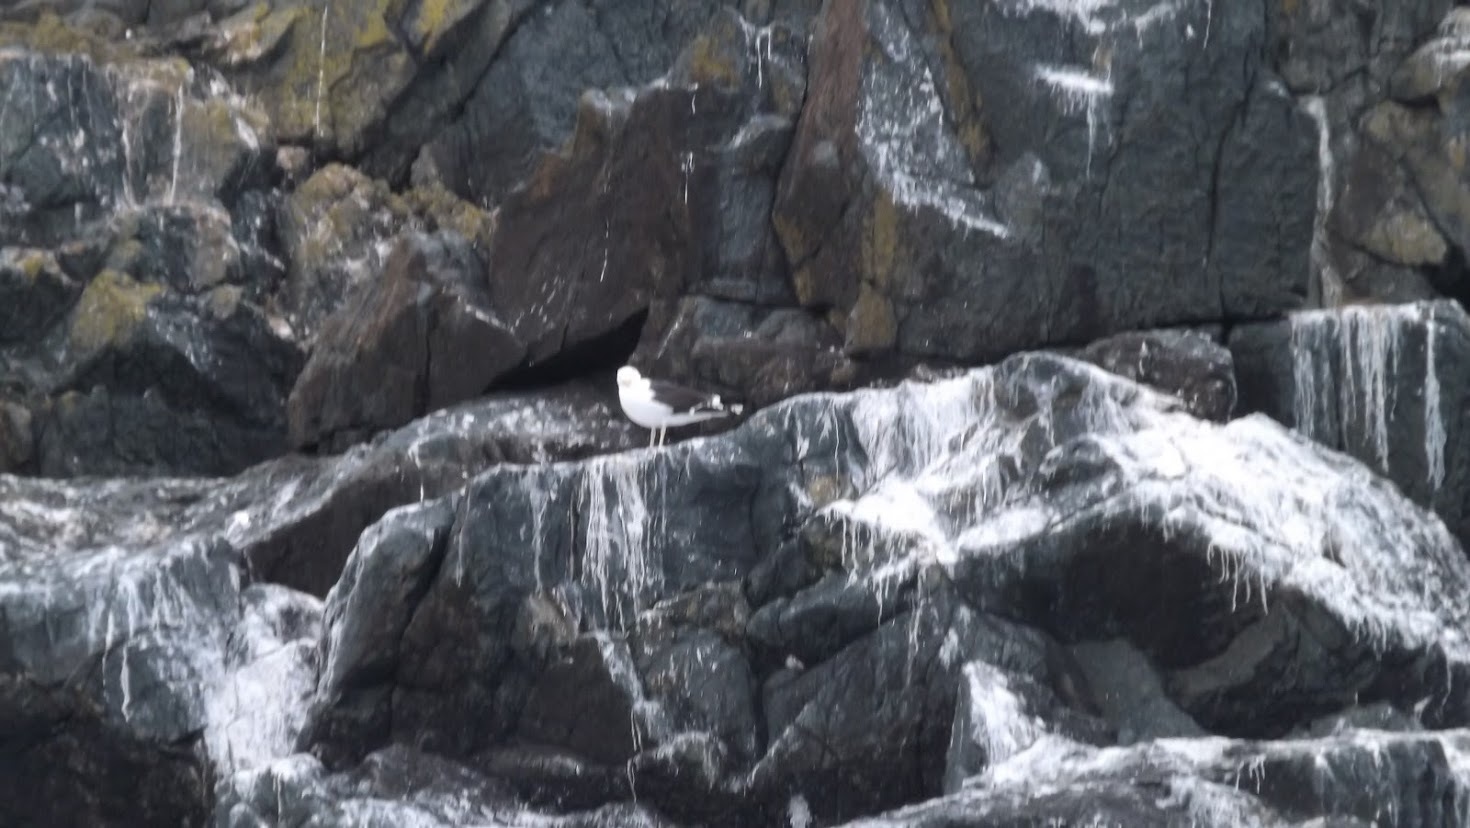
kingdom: Animalia
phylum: Chordata
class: Aves
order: Charadriiformes
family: Laridae
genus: Larus
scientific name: Larus marinus
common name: Great black-backed gull
